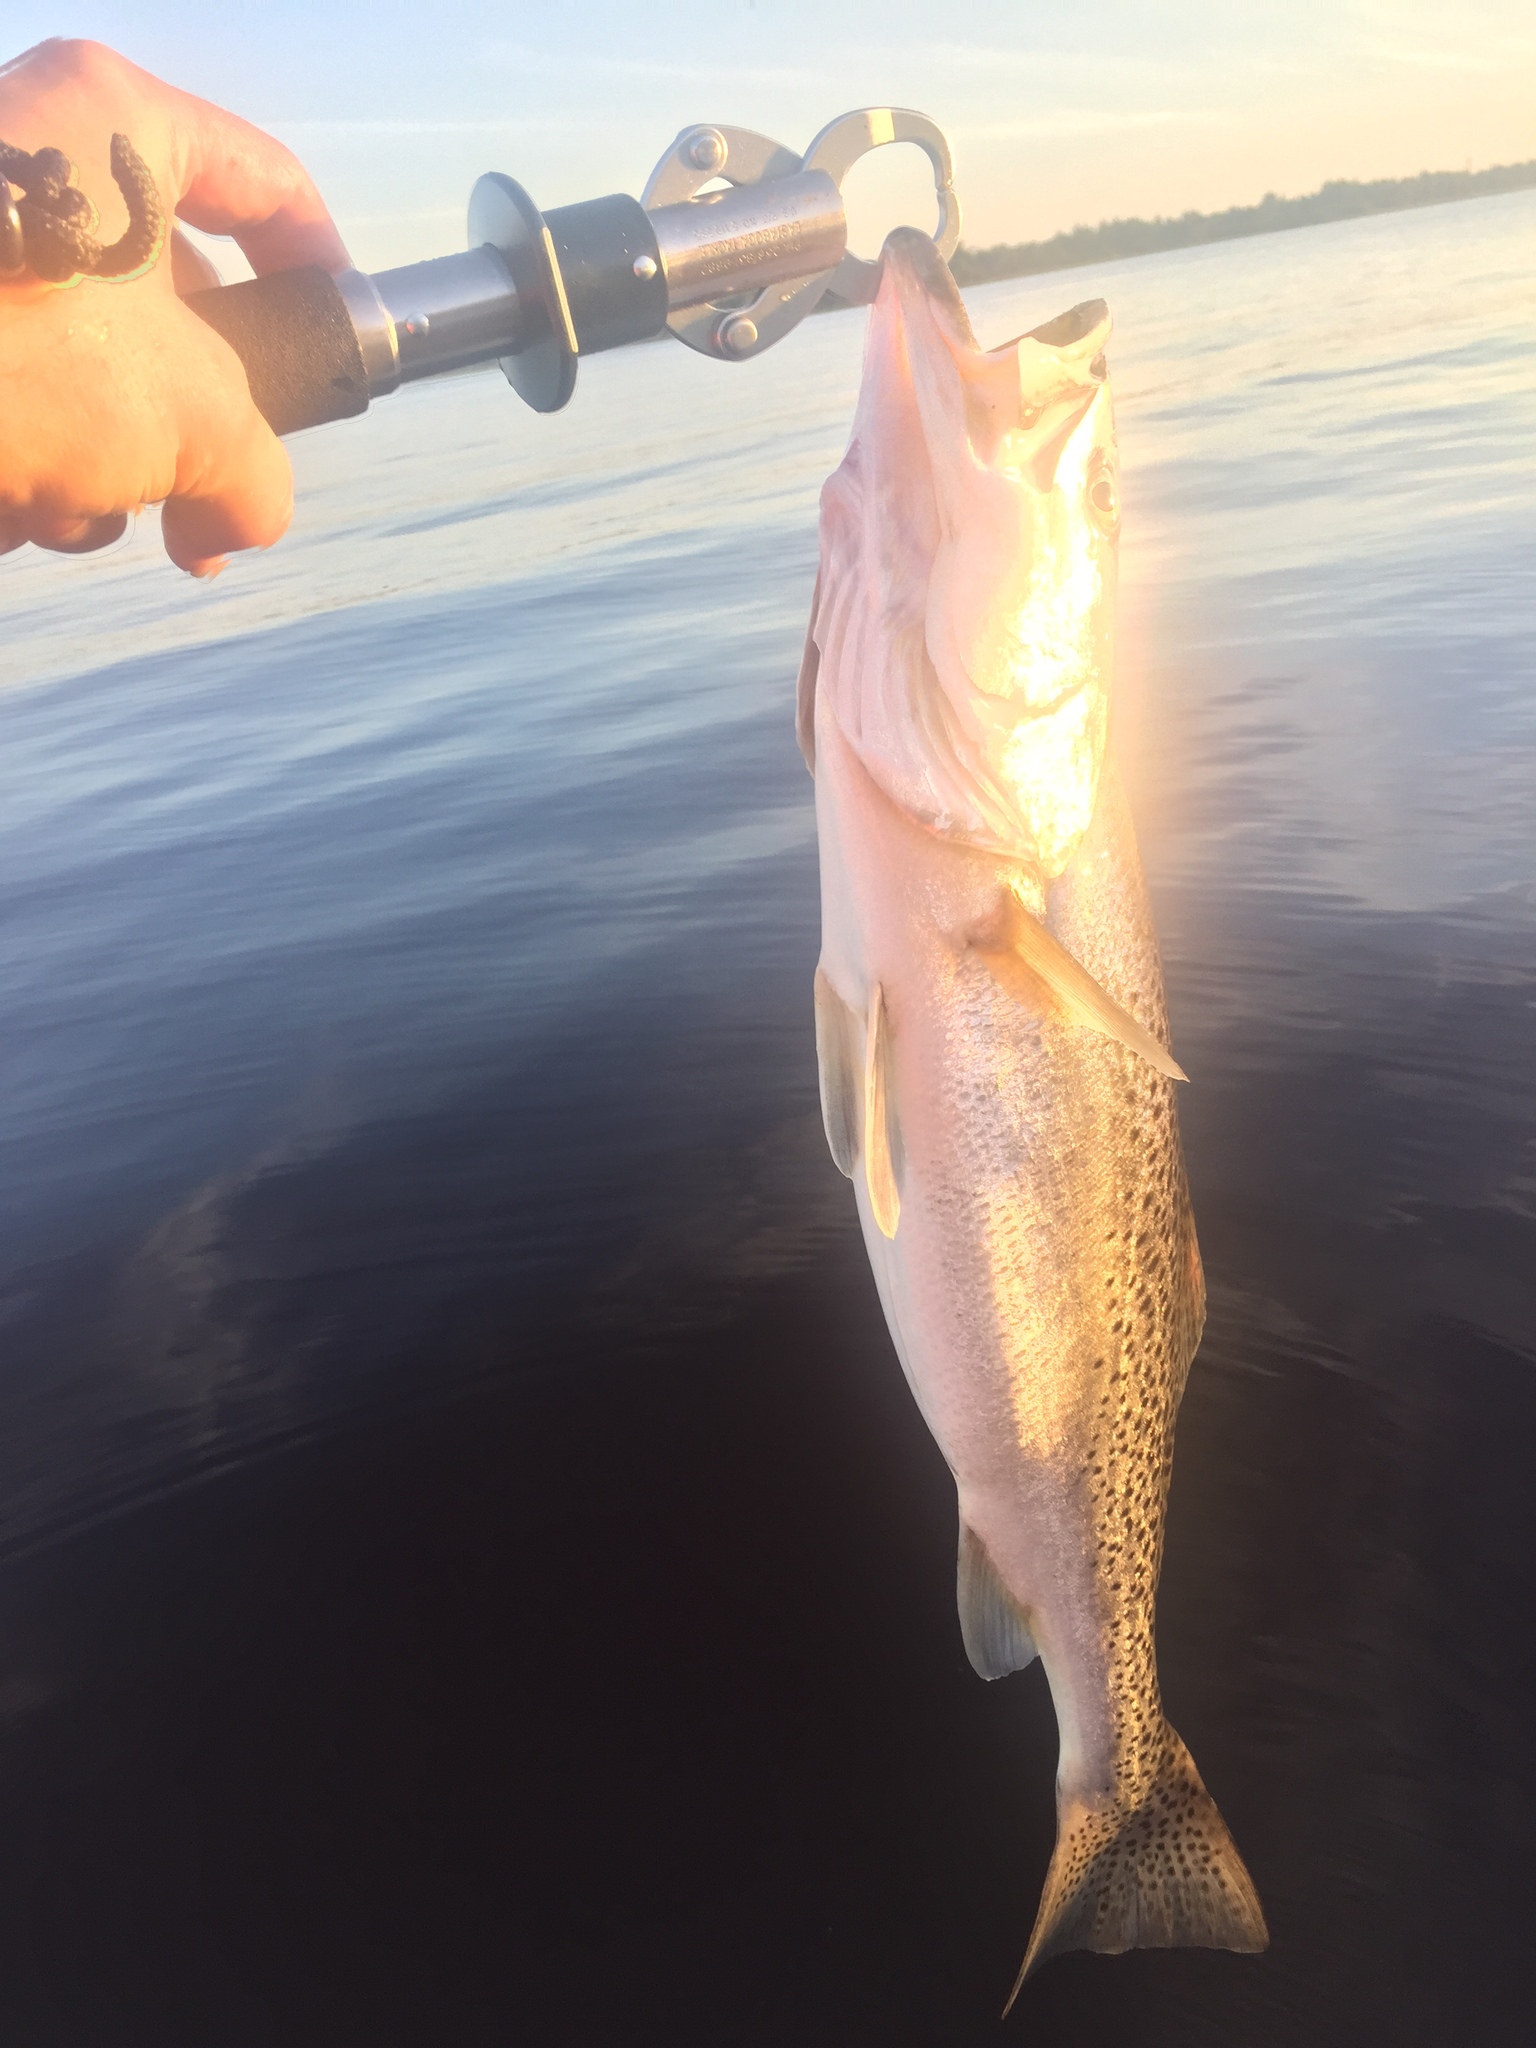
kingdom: Animalia
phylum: Chordata
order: Perciformes
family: Sciaenidae
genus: Cynoscion
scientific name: Cynoscion nebulosus
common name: Spotted seatrout
